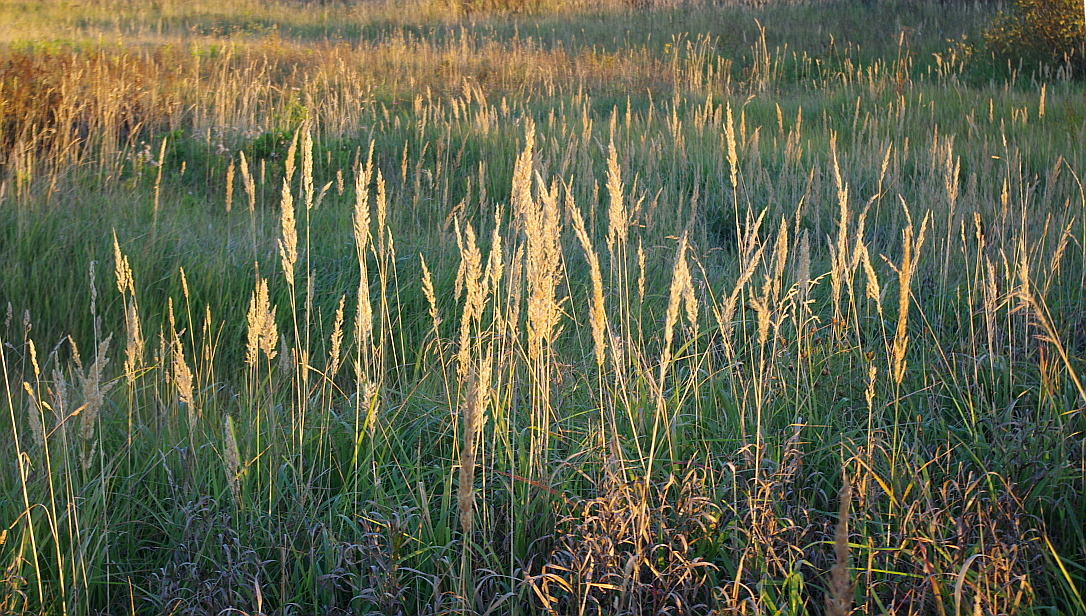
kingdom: Plantae
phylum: Tracheophyta
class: Liliopsida
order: Poales
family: Poaceae
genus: Calamagrostis
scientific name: Calamagrostis epigejos
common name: Wood small-reed
